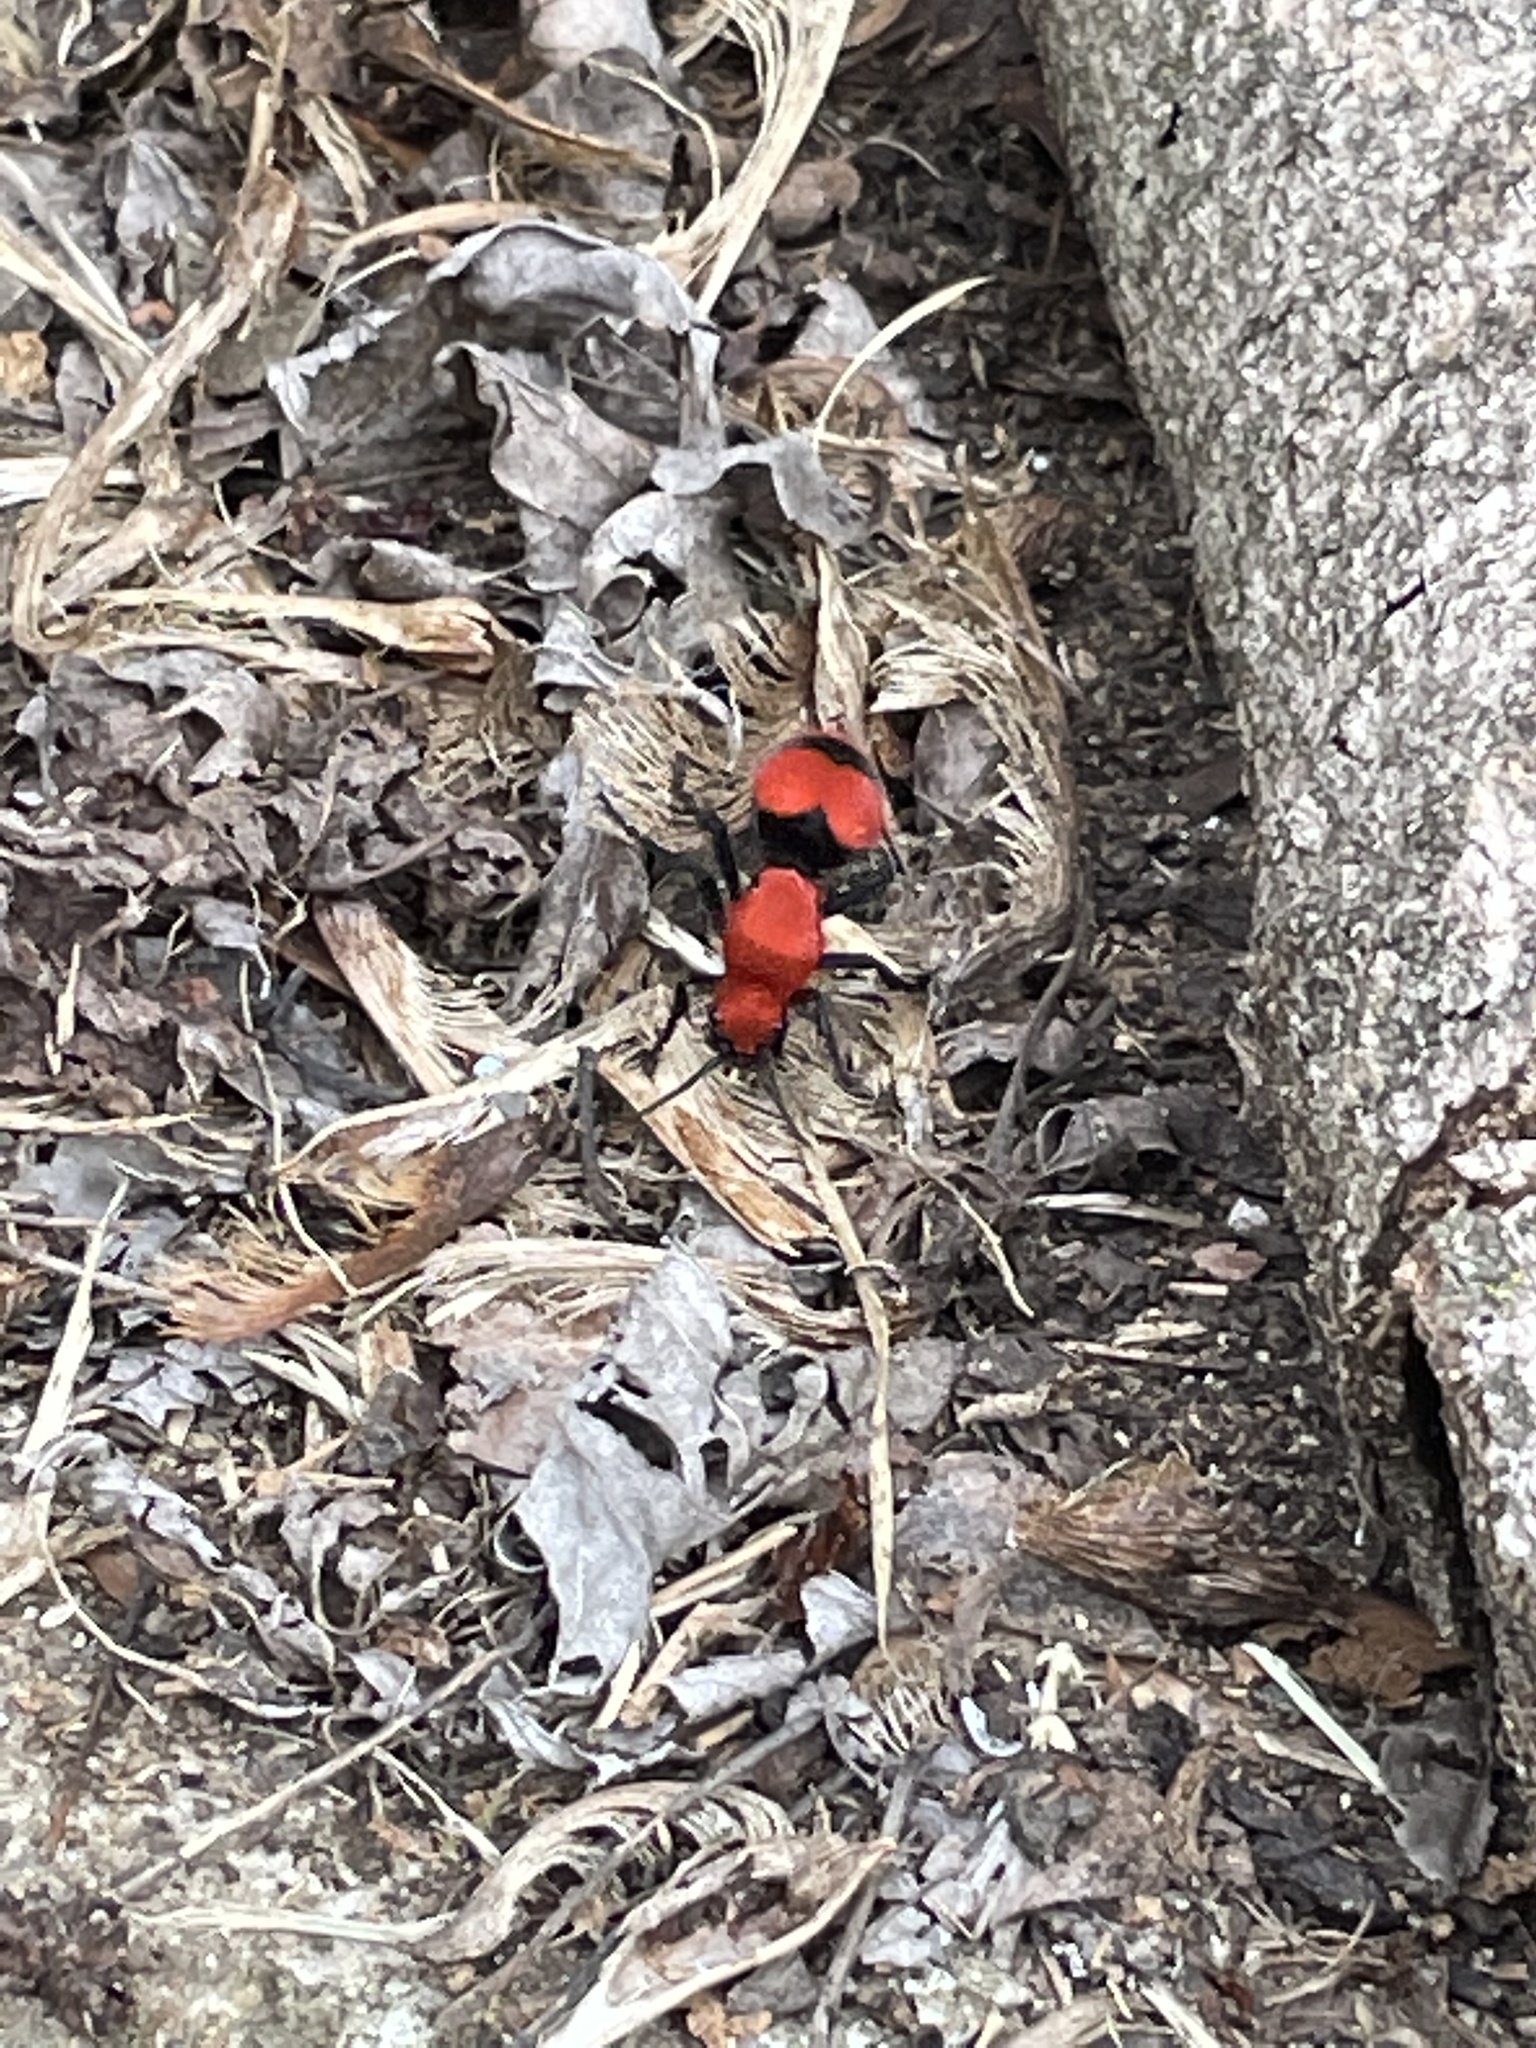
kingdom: Animalia
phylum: Arthropoda
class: Insecta
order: Hymenoptera
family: Mutillidae
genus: Dasymutilla
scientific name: Dasymutilla occidentalis
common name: Common eastern velvet ant
